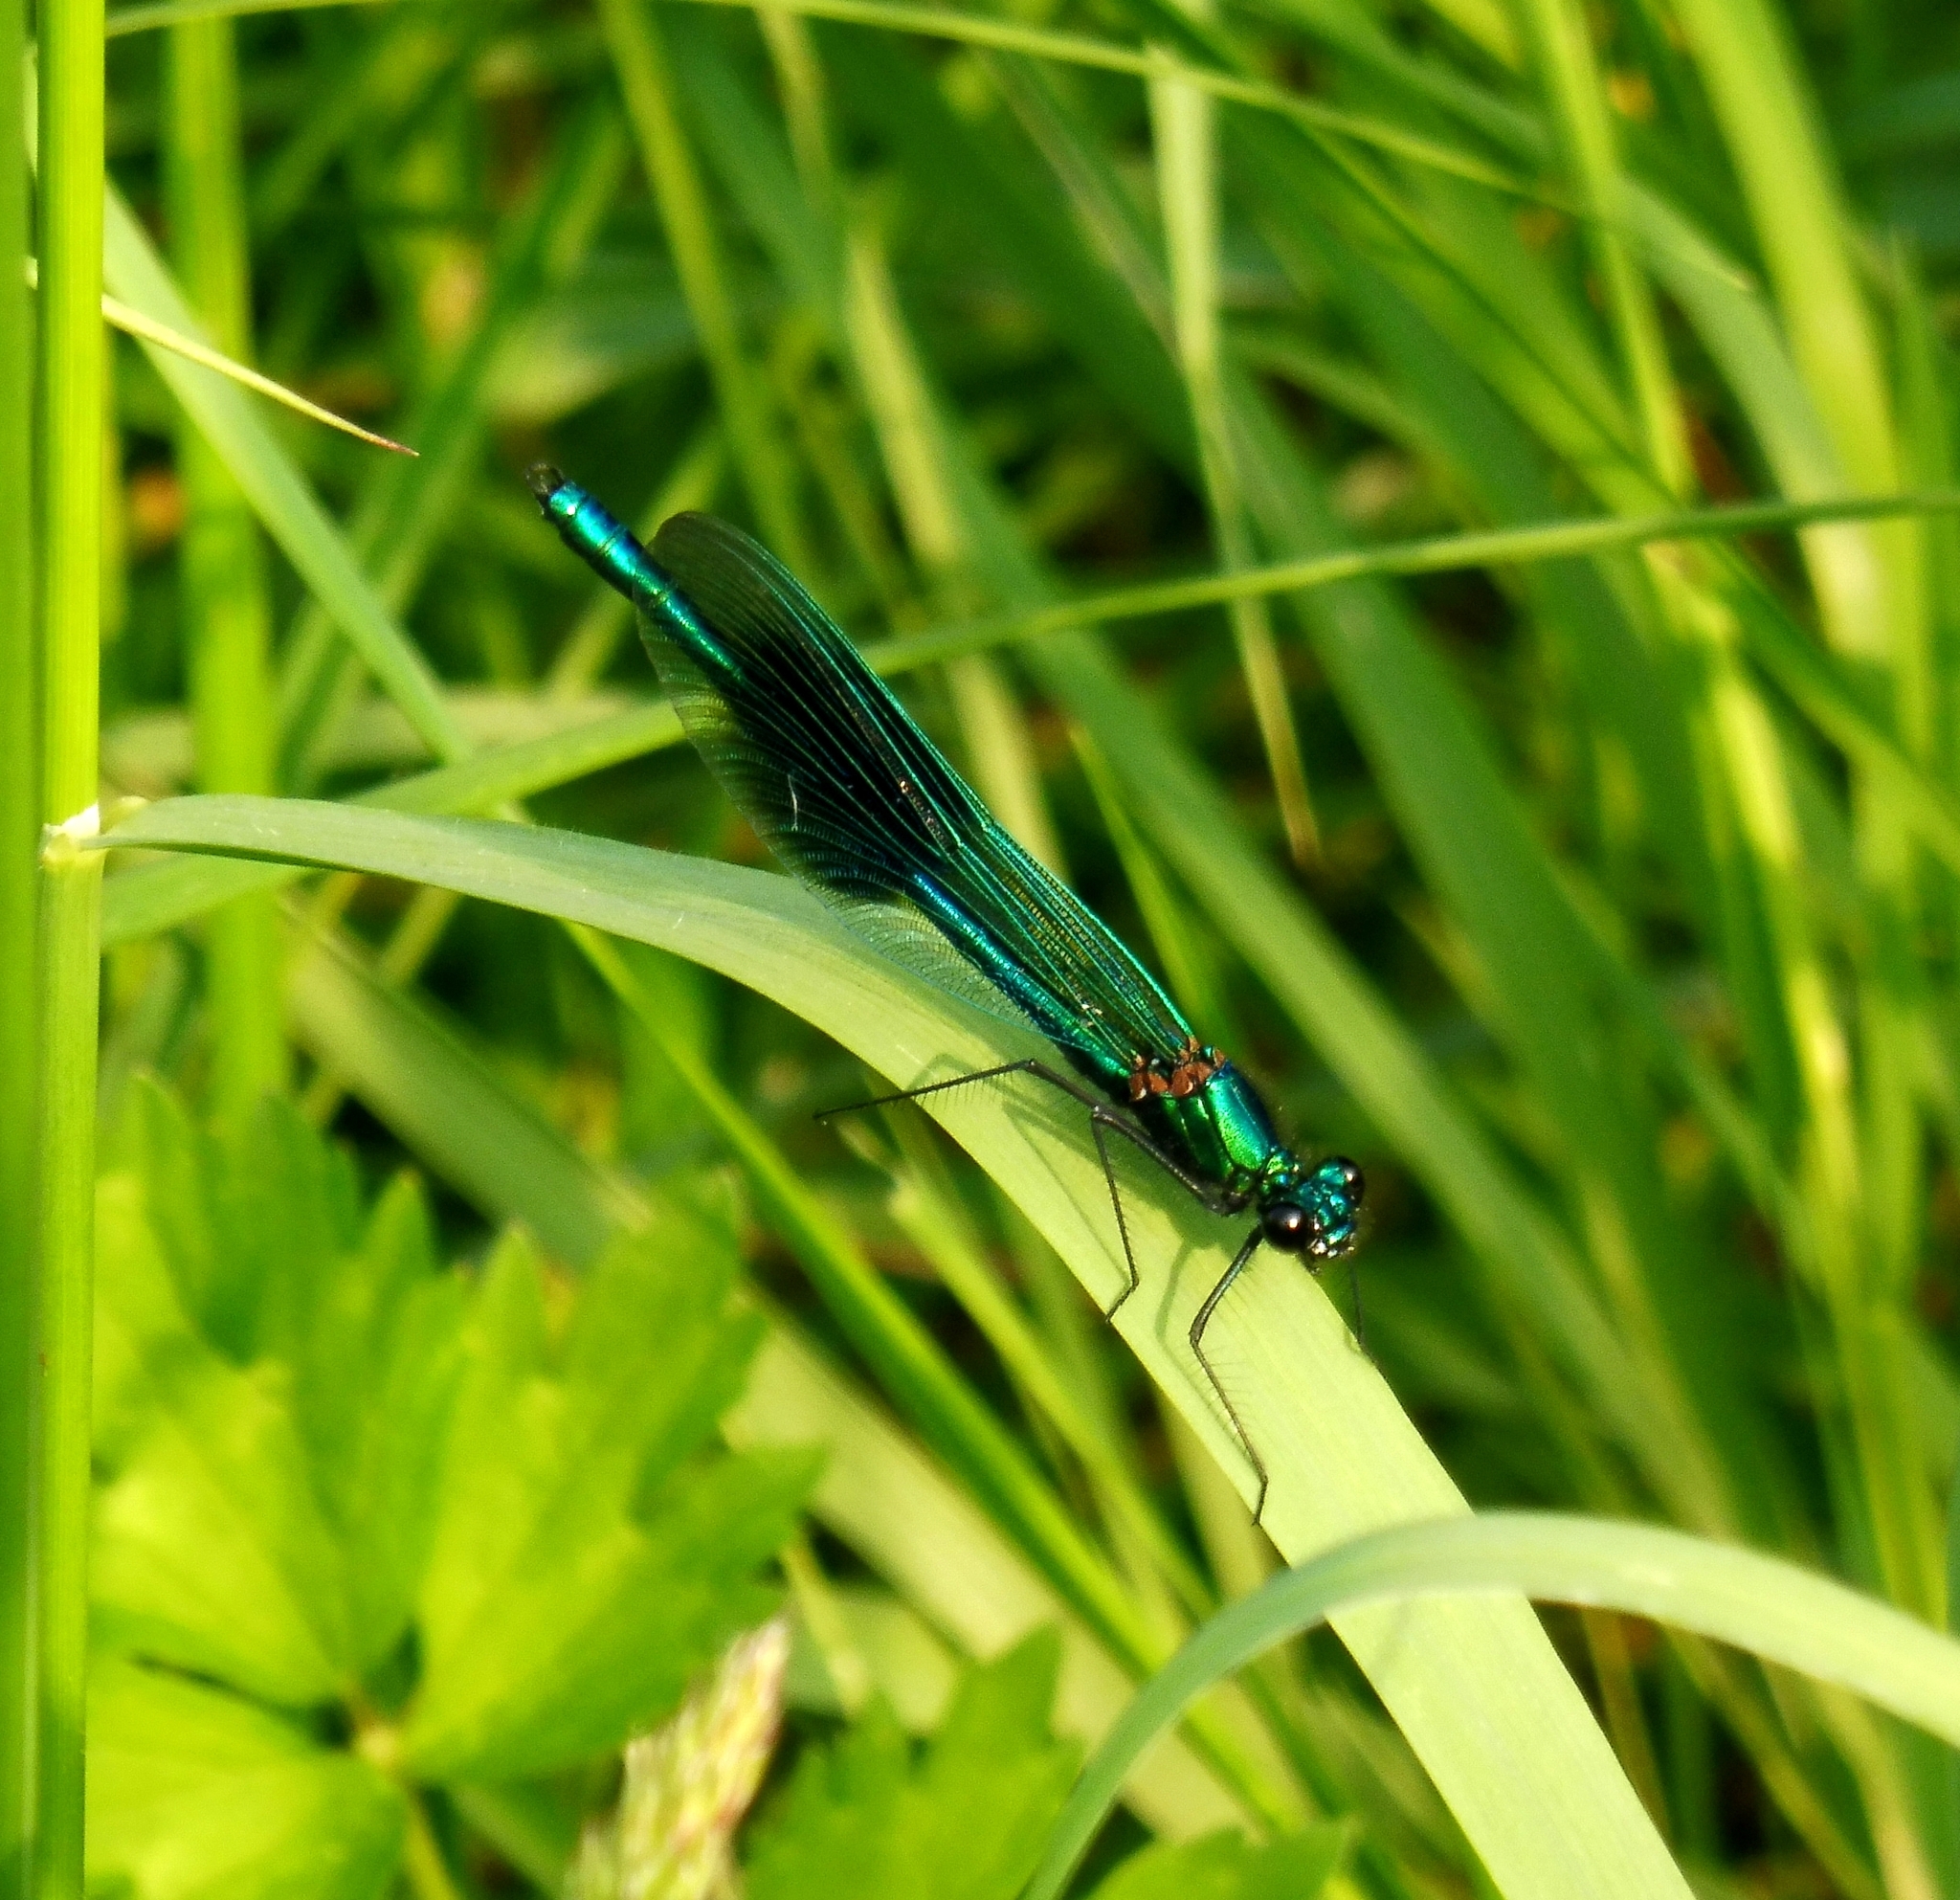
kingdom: Animalia
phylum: Arthropoda
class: Insecta
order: Odonata
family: Calopterygidae
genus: Calopteryx
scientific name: Calopteryx splendens
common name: Banded demoiselle
